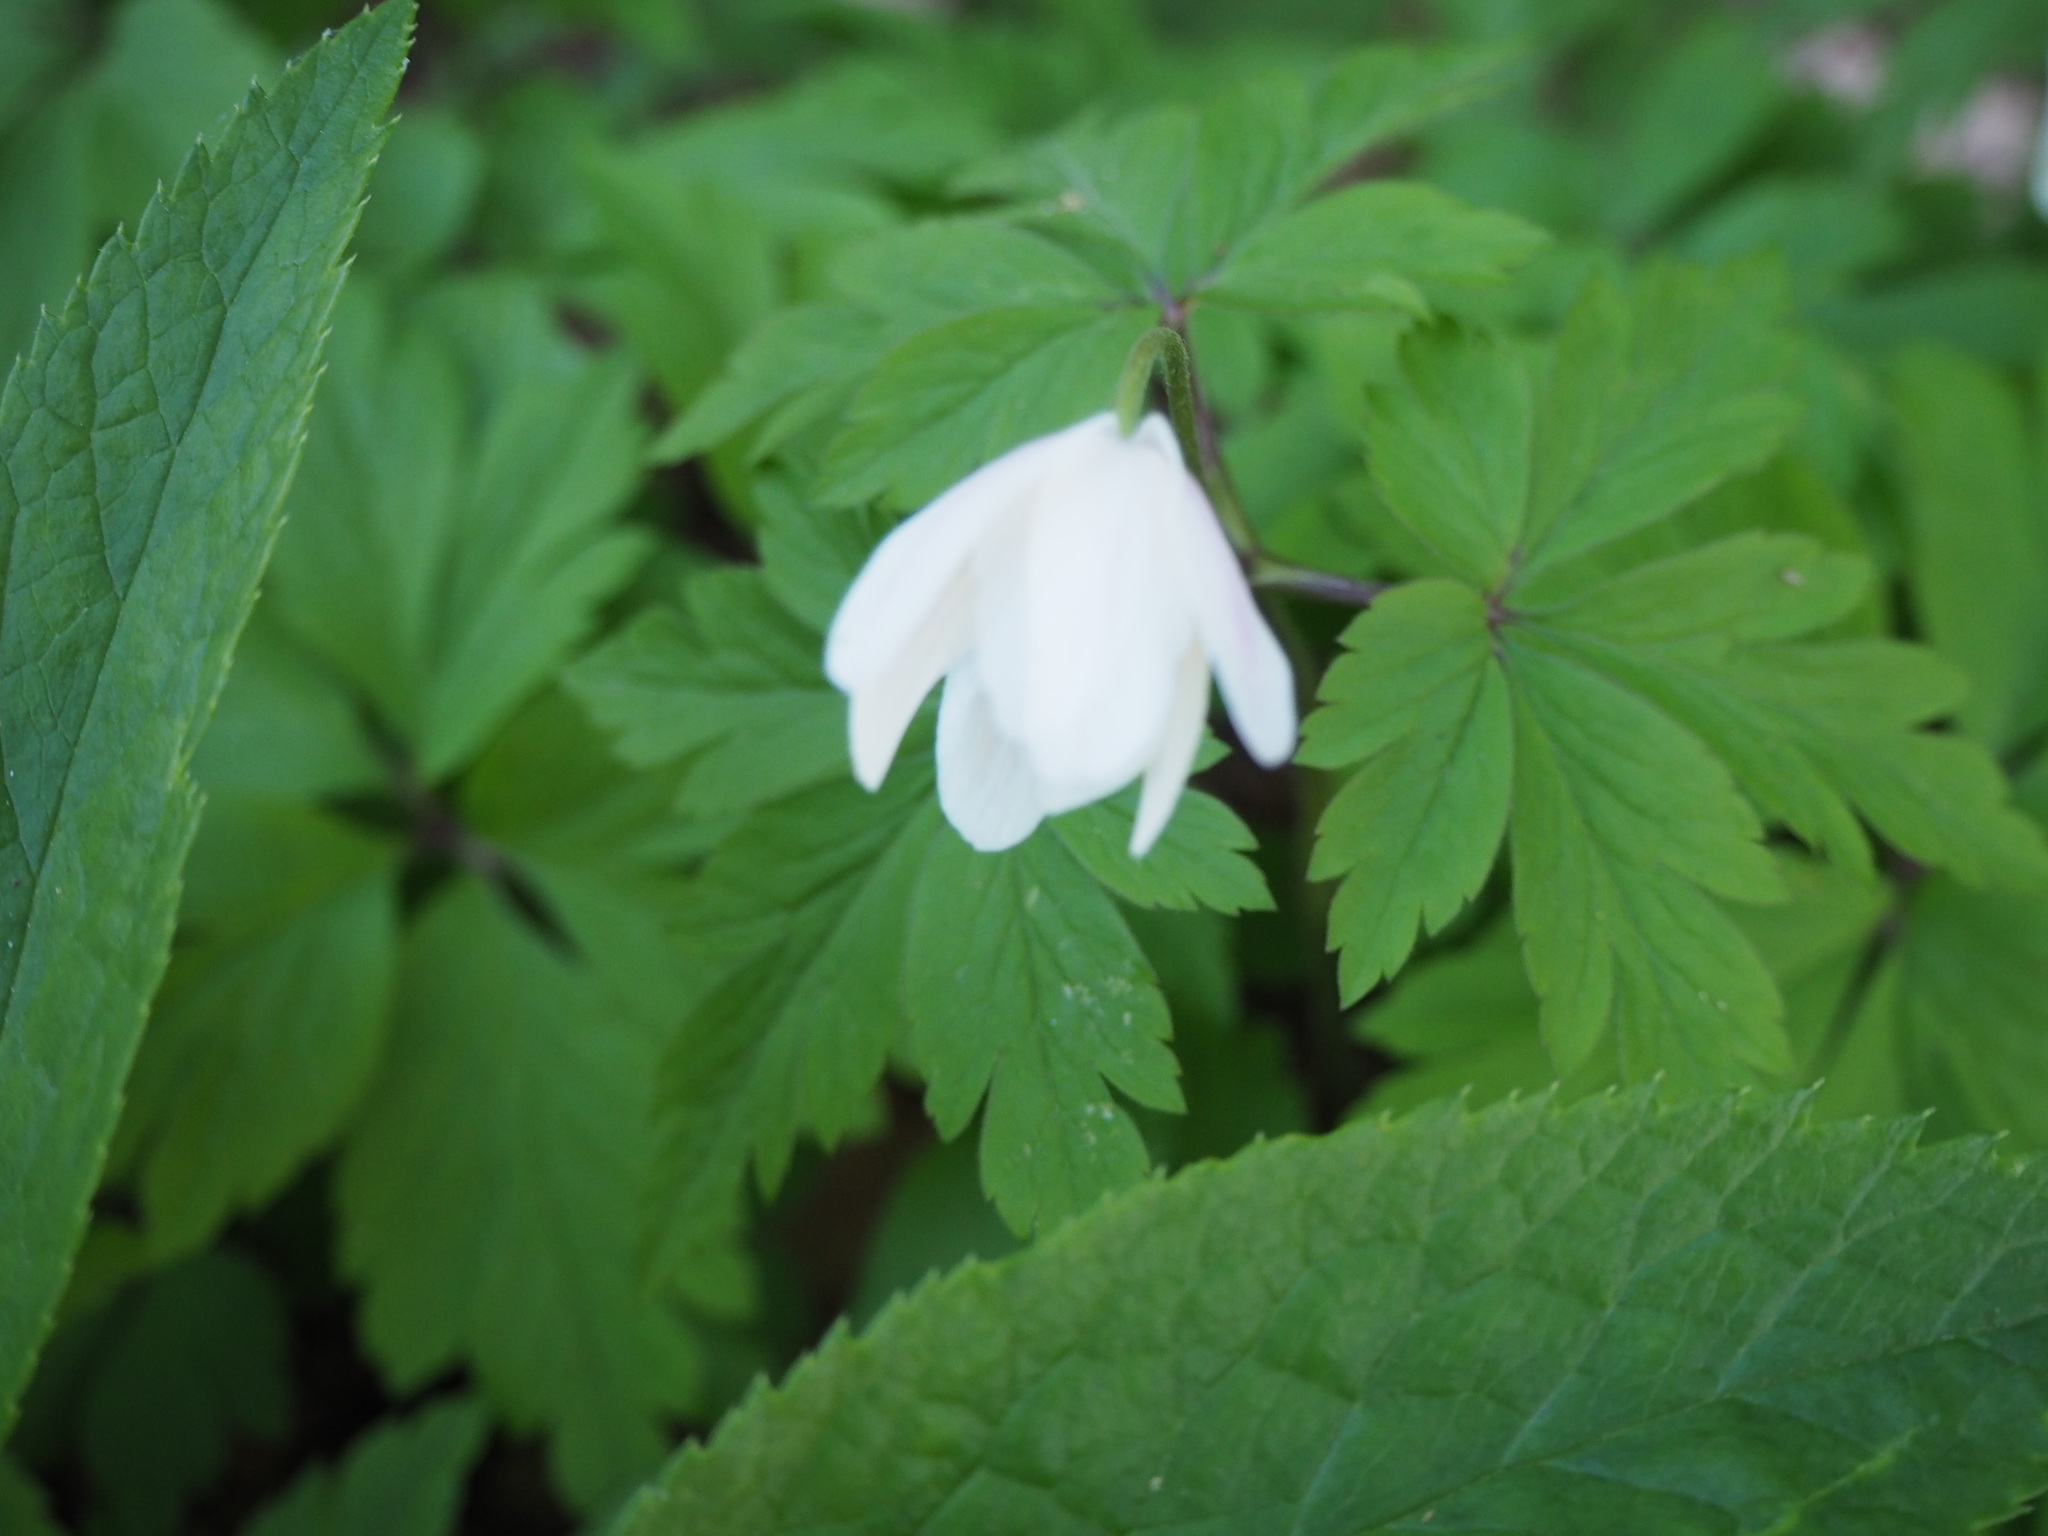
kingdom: Plantae
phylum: Tracheophyta
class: Magnoliopsida
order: Ranunculales
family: Ranunculaceae
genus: Anemone
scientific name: Anemone nemorosa
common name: Wood anemone
